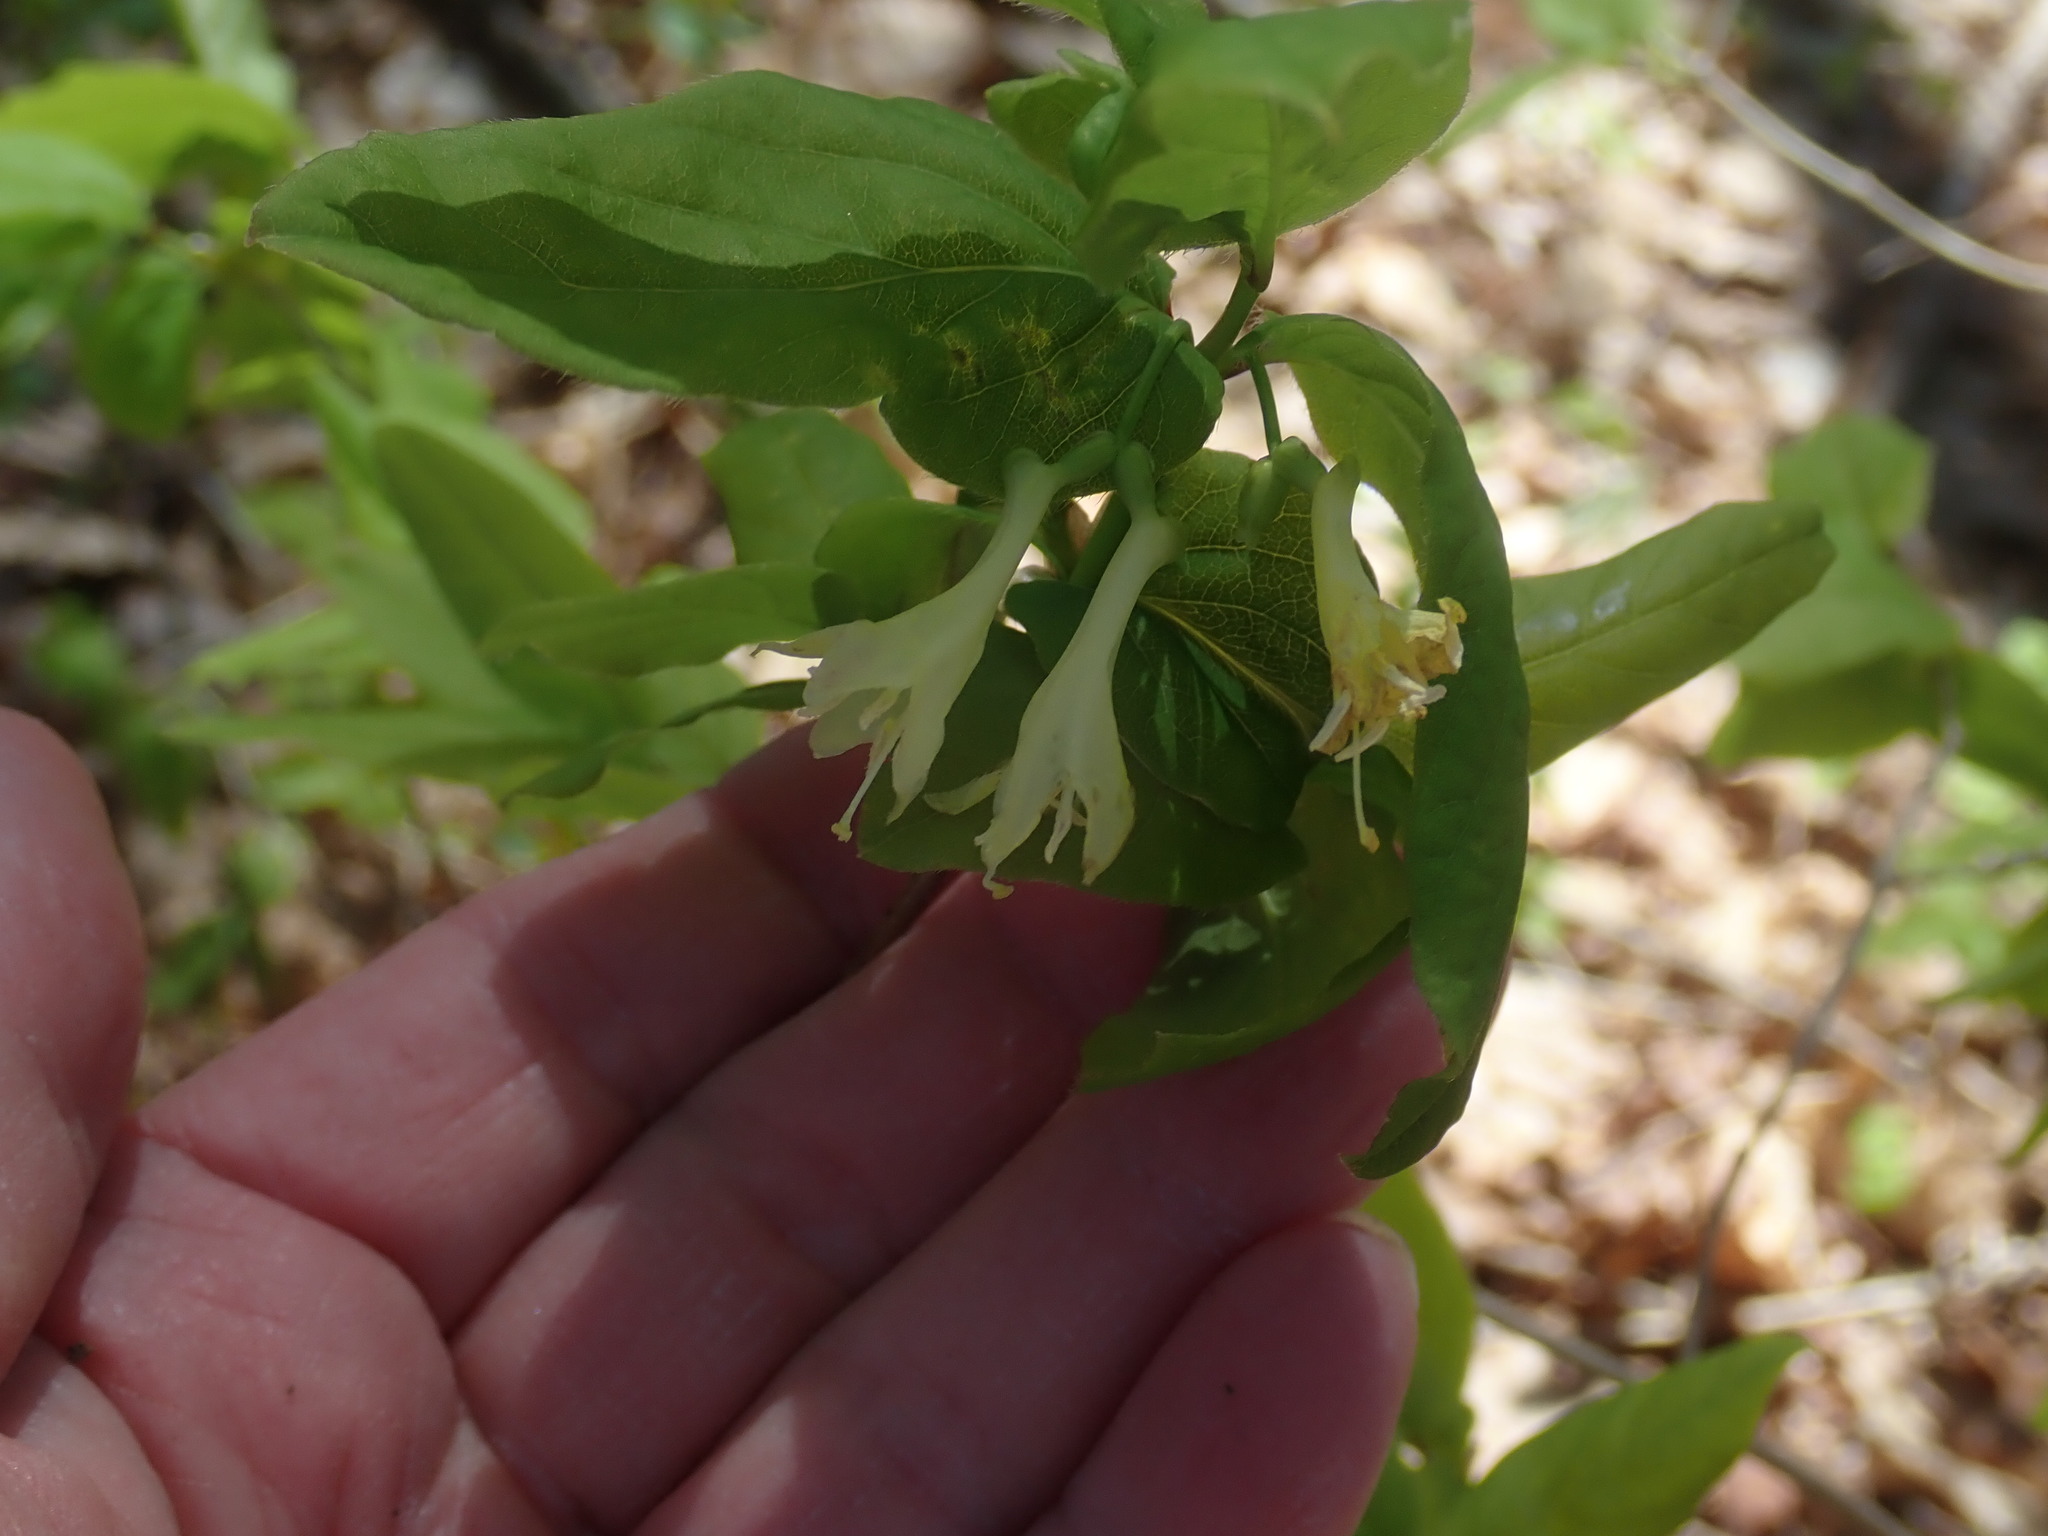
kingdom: Plantae
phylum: Tracheophyta
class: Magnoliopsida
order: Dipsacales
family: Caprifoliaceae
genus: Lonicera
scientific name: Lonicera canadensis
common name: American fly-honeysuckle
